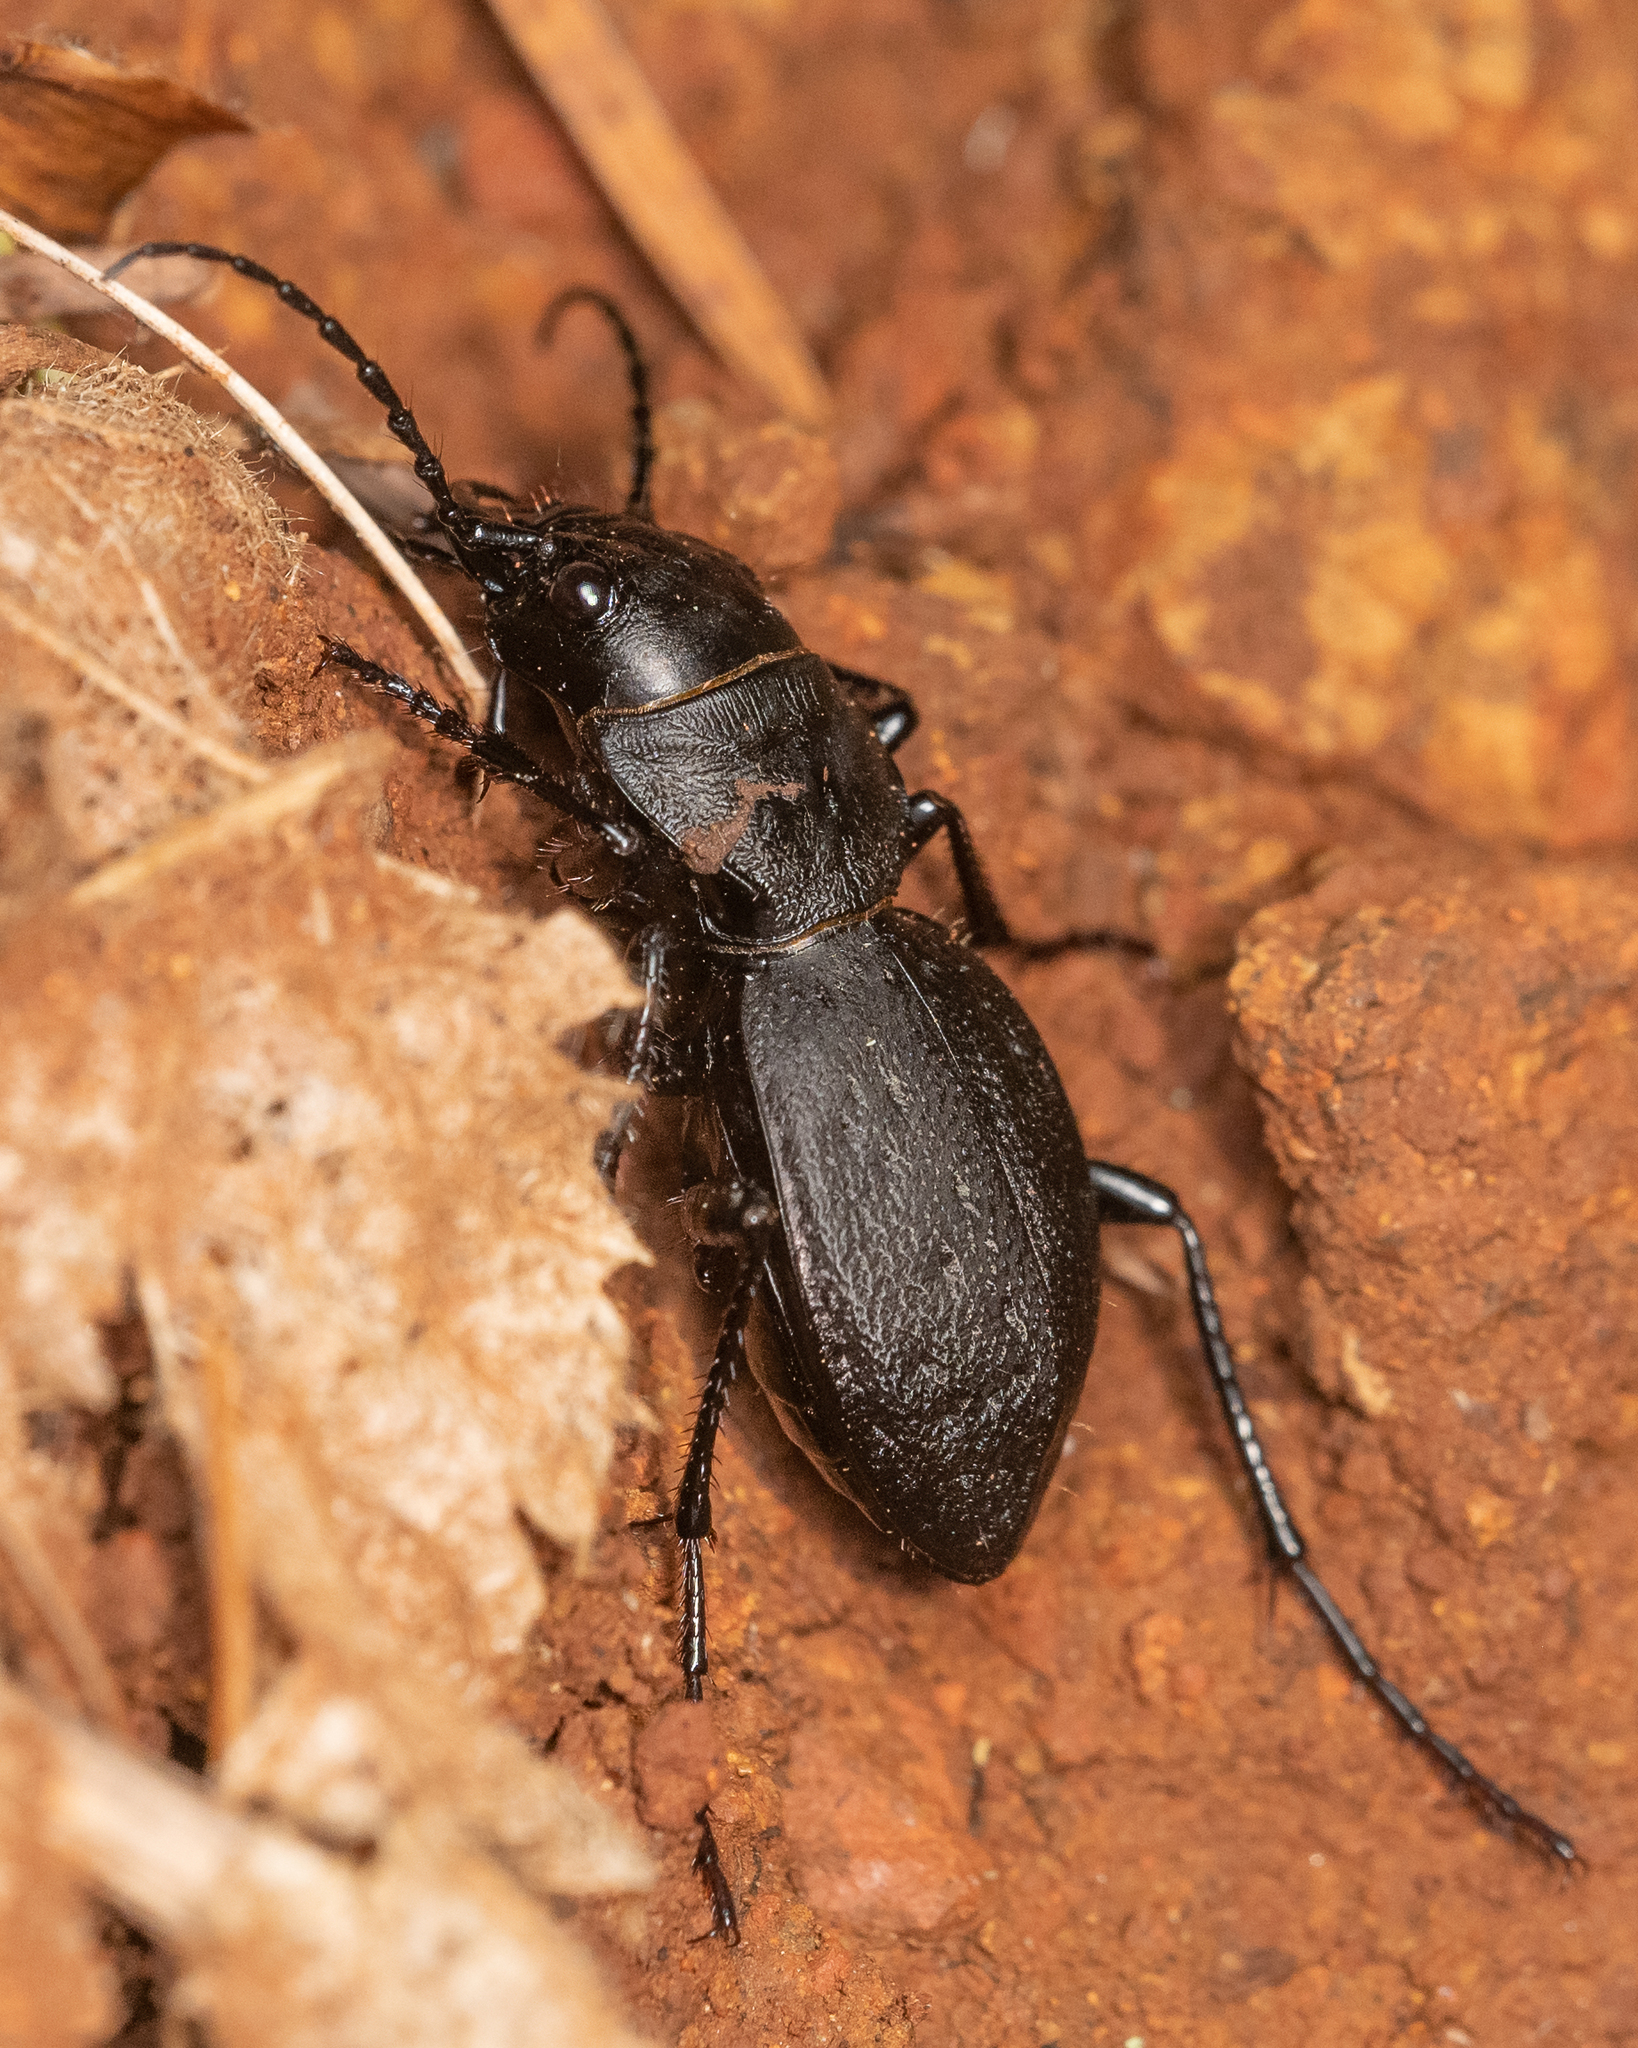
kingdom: Animalia
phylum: Arthropoda
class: Insecta
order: Coleoptera
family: Carabidae
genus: Omus
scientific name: Omus dejeanii
